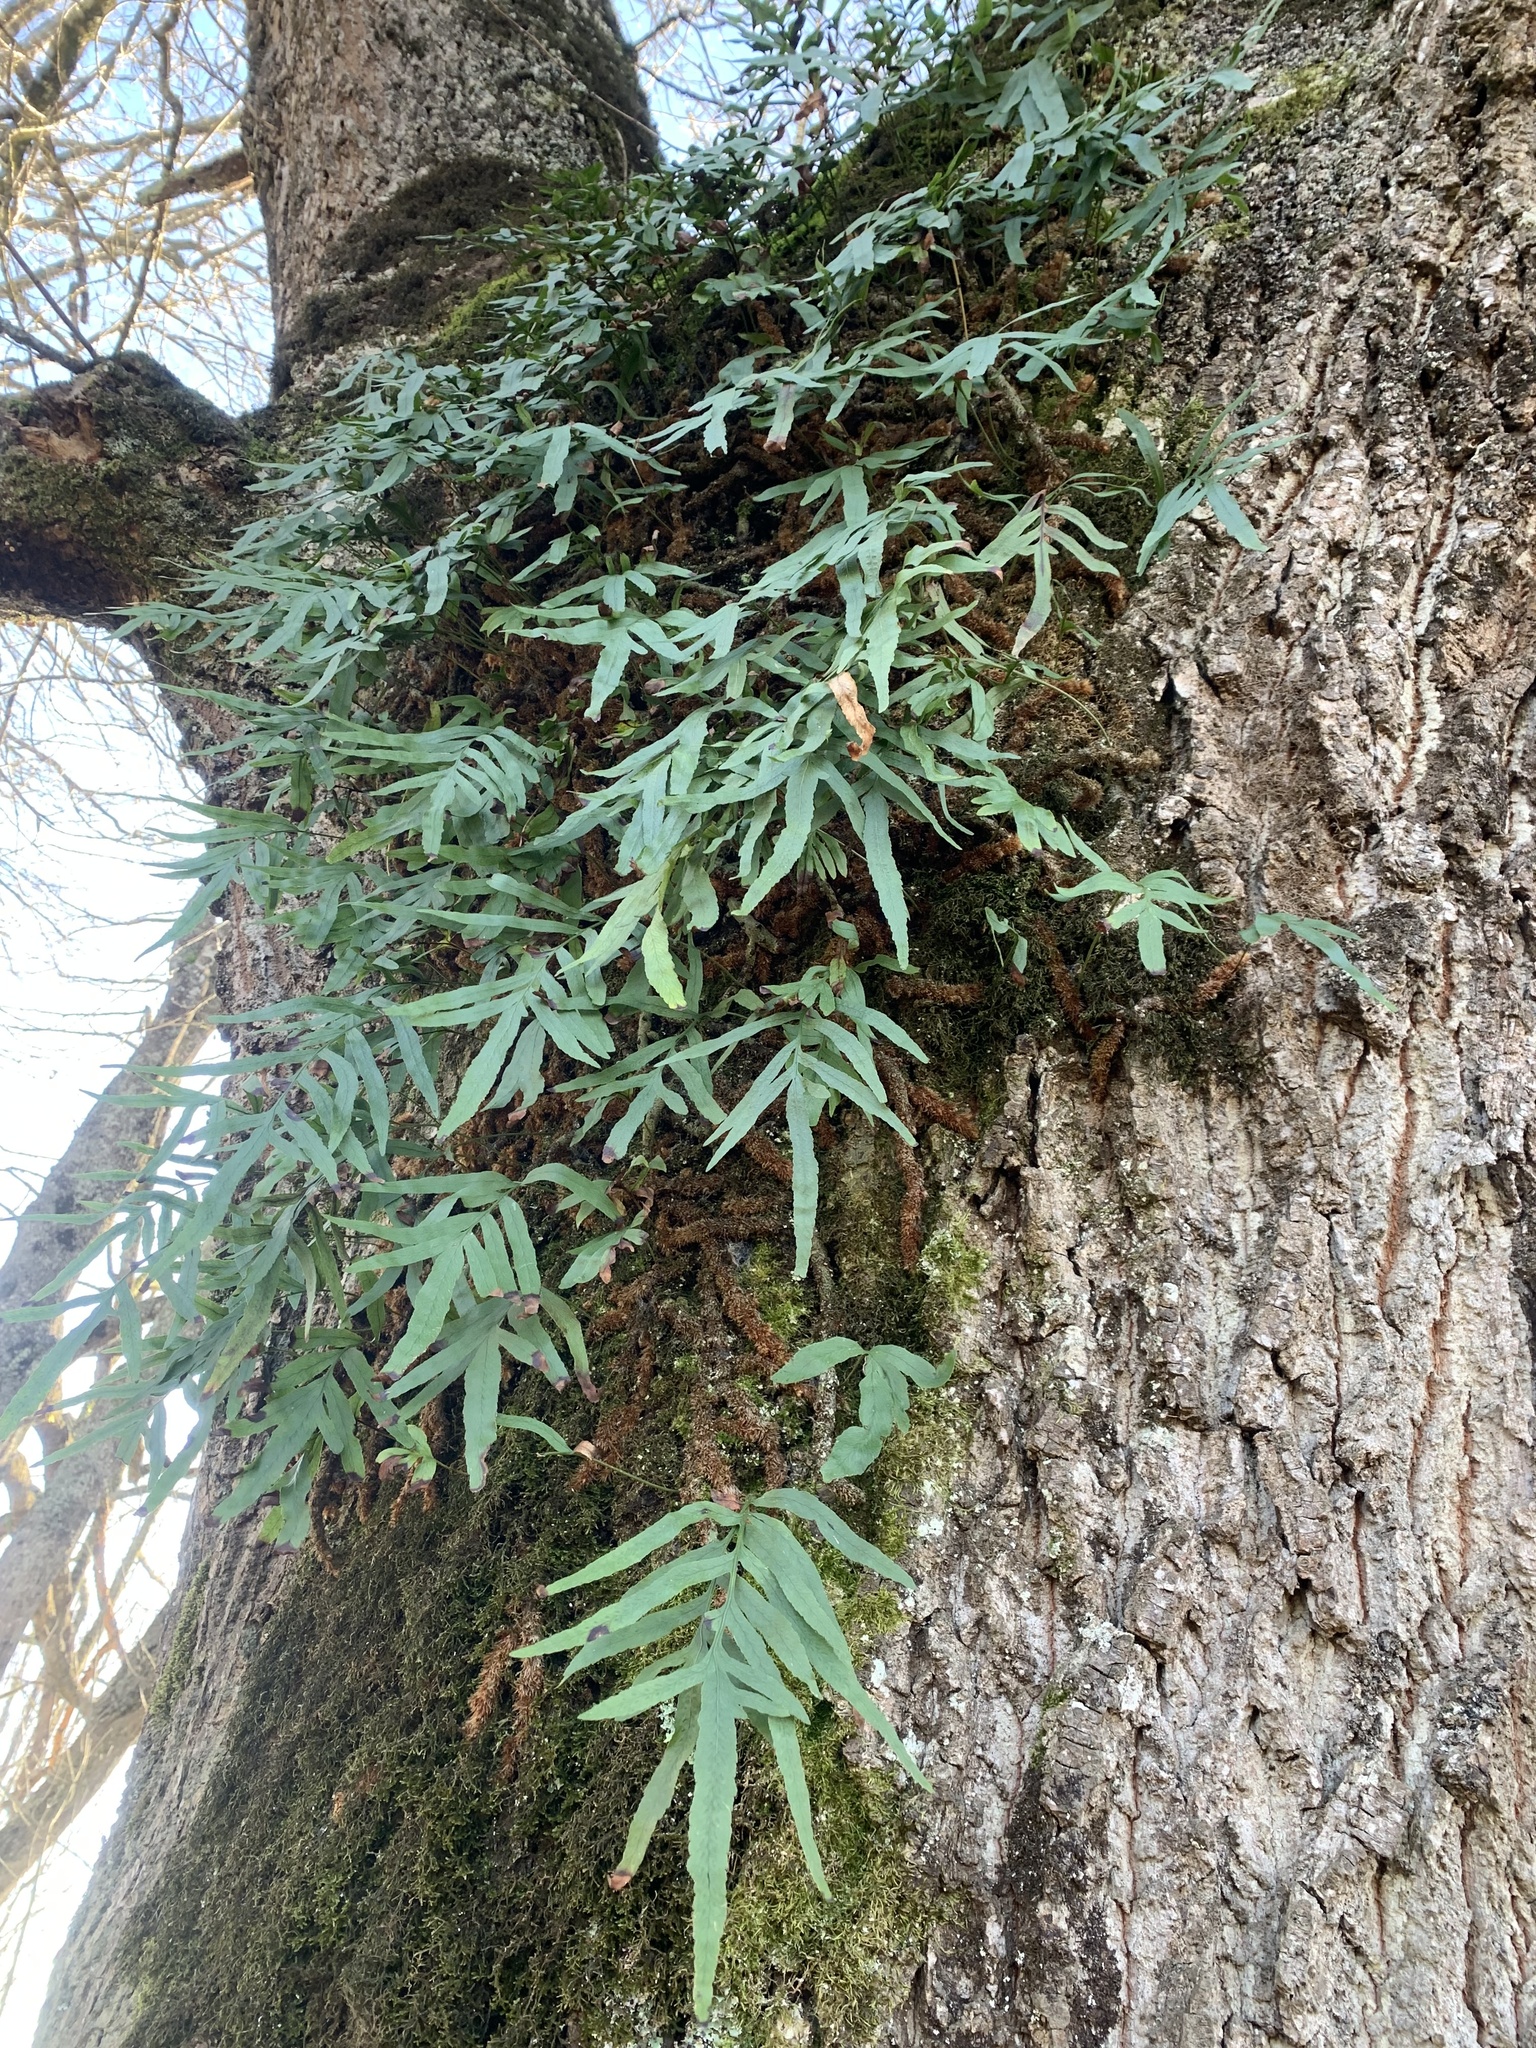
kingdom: Plantae
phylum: Tracheophyta
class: Polypodiopsida
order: Polypodiales
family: Polypodiaceae
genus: Synammia
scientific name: Synammia feuillei
